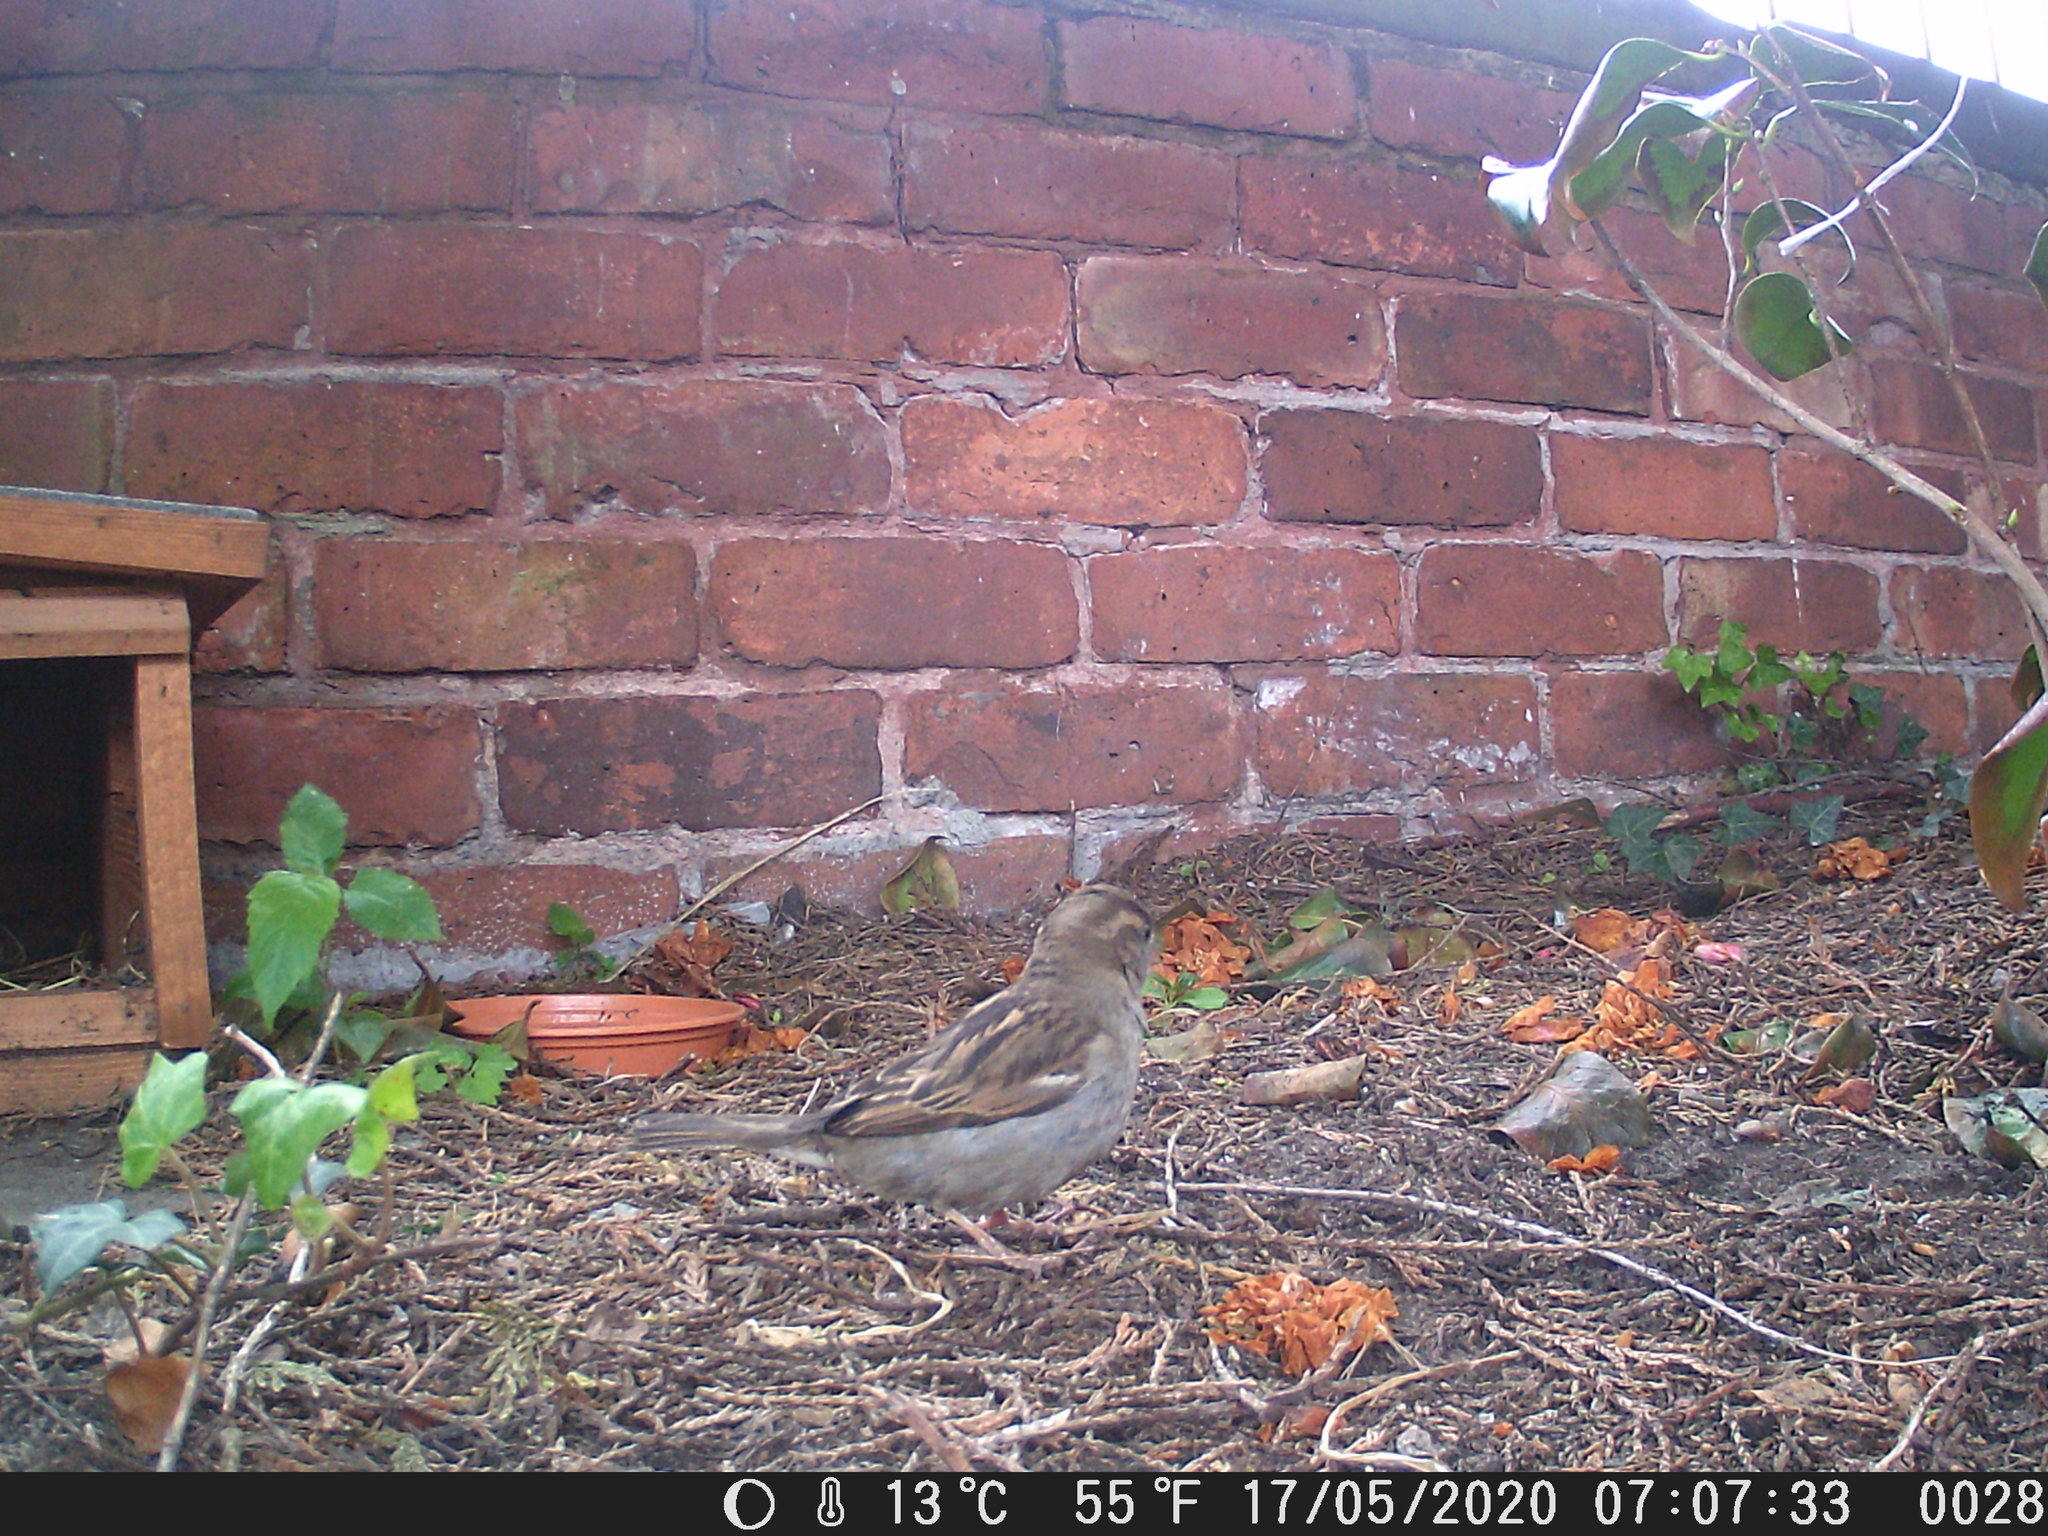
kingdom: Animalia
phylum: Chordata
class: Aves
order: Passeriformes
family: Passeridae
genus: Passer
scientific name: Passer domesticus
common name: House sparrow
